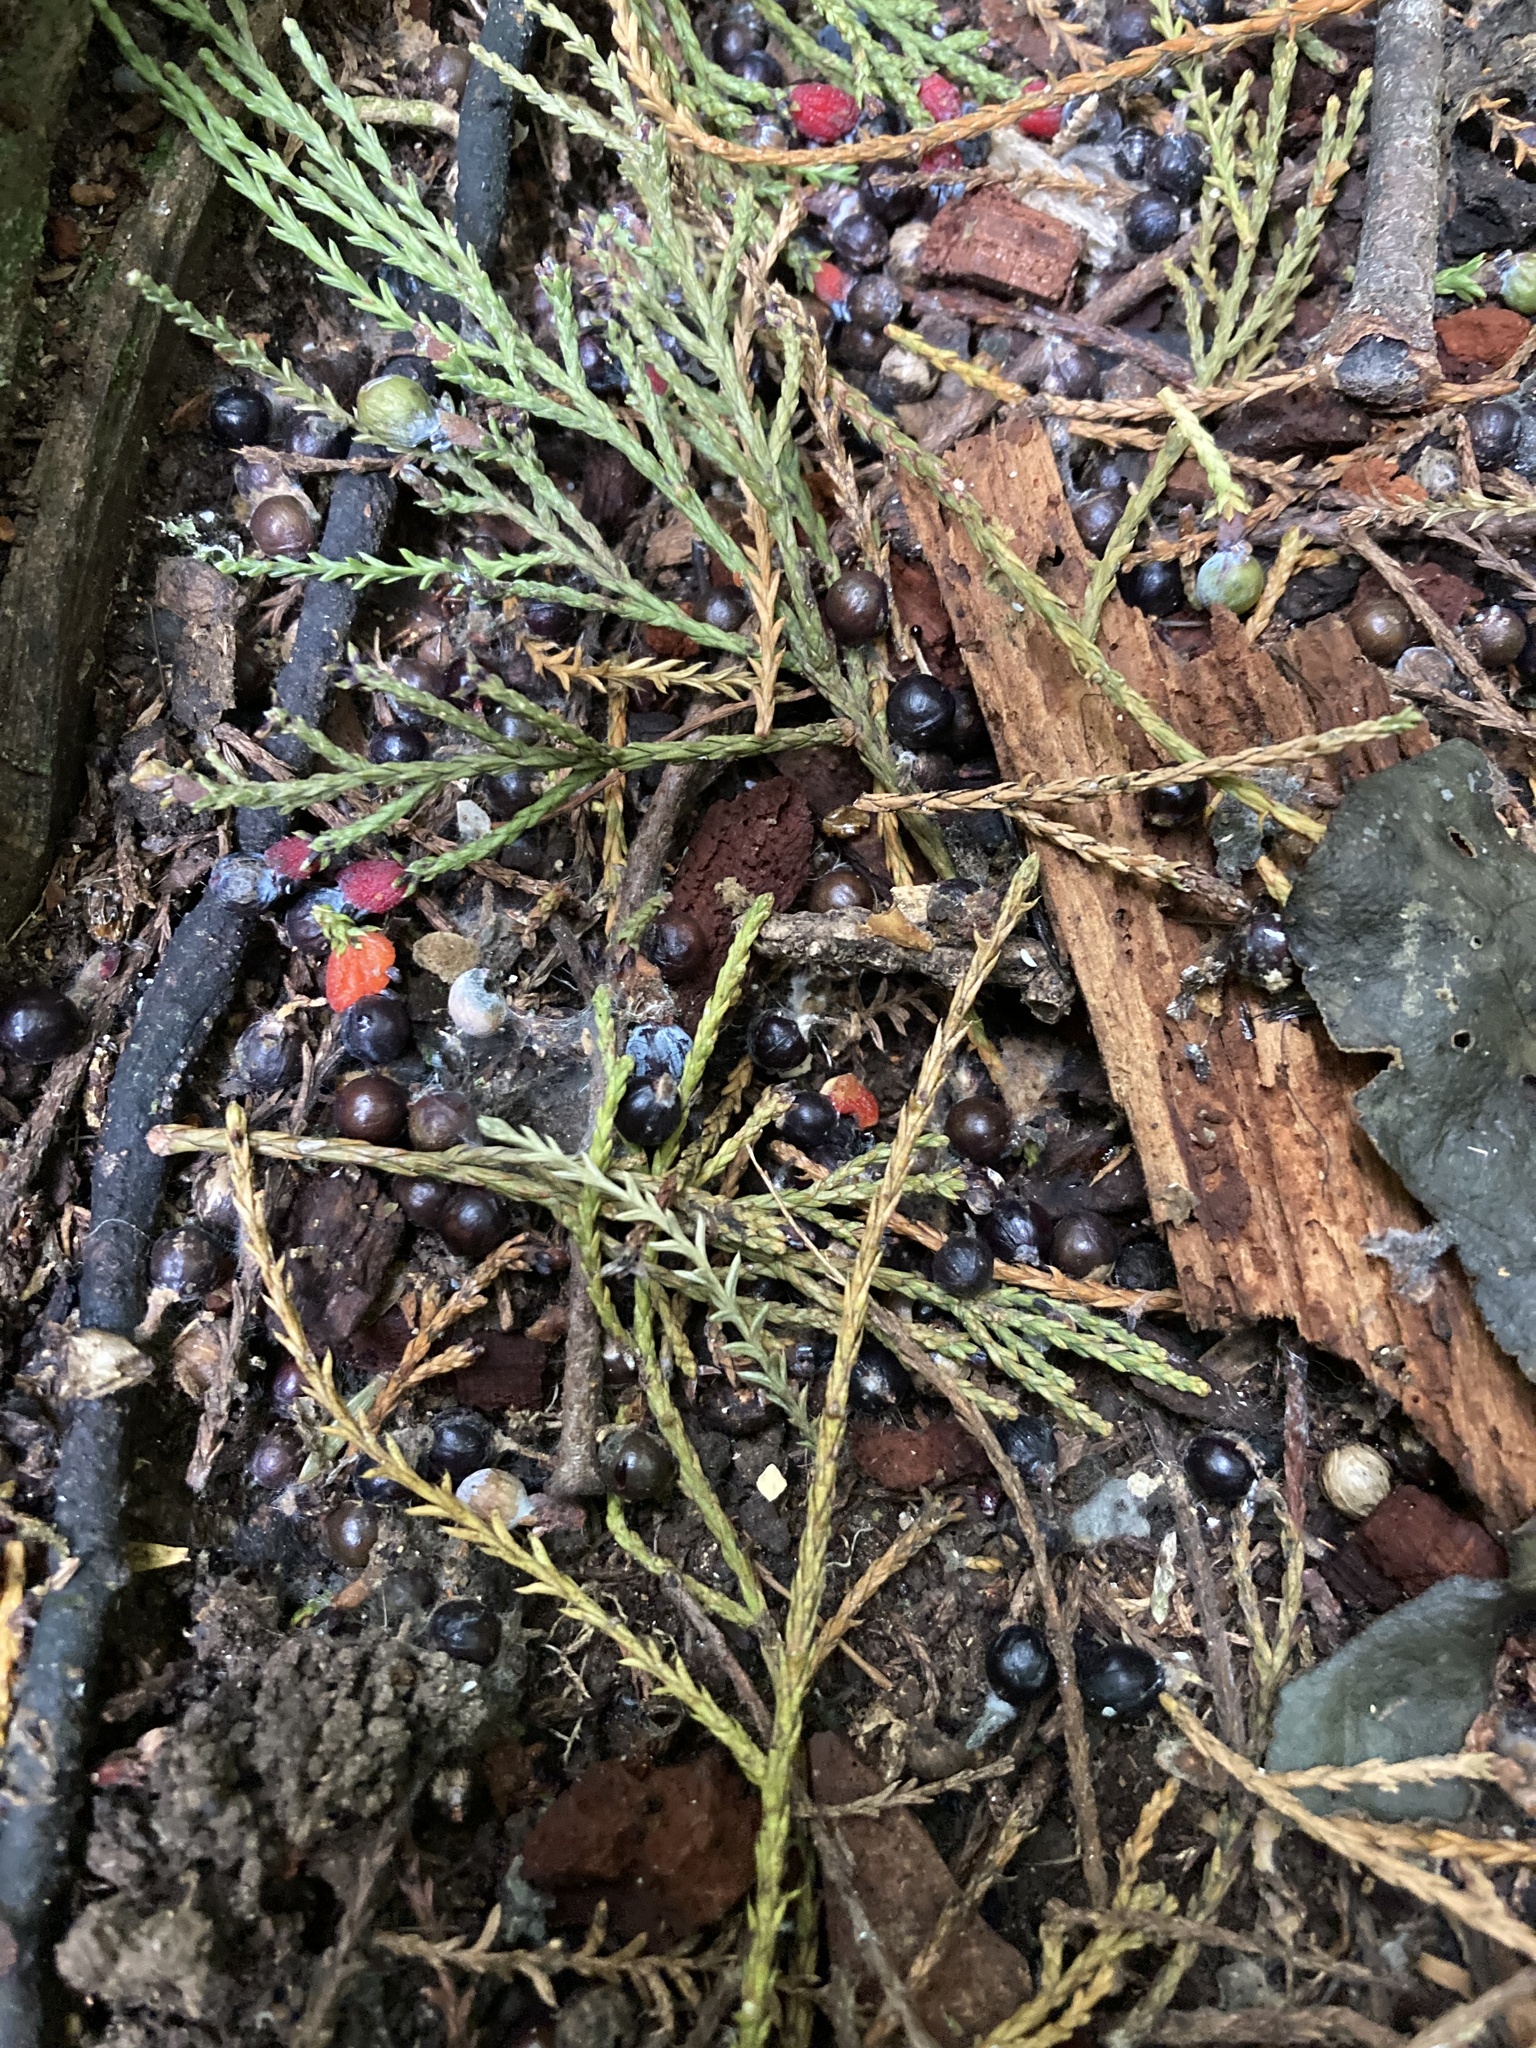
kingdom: Plantae
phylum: Tracheophyta
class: Pinopsida
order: Pinales
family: Podocarpaceae
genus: Dacrycarpus
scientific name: Dacrycarpus dacrydioides
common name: White pine
